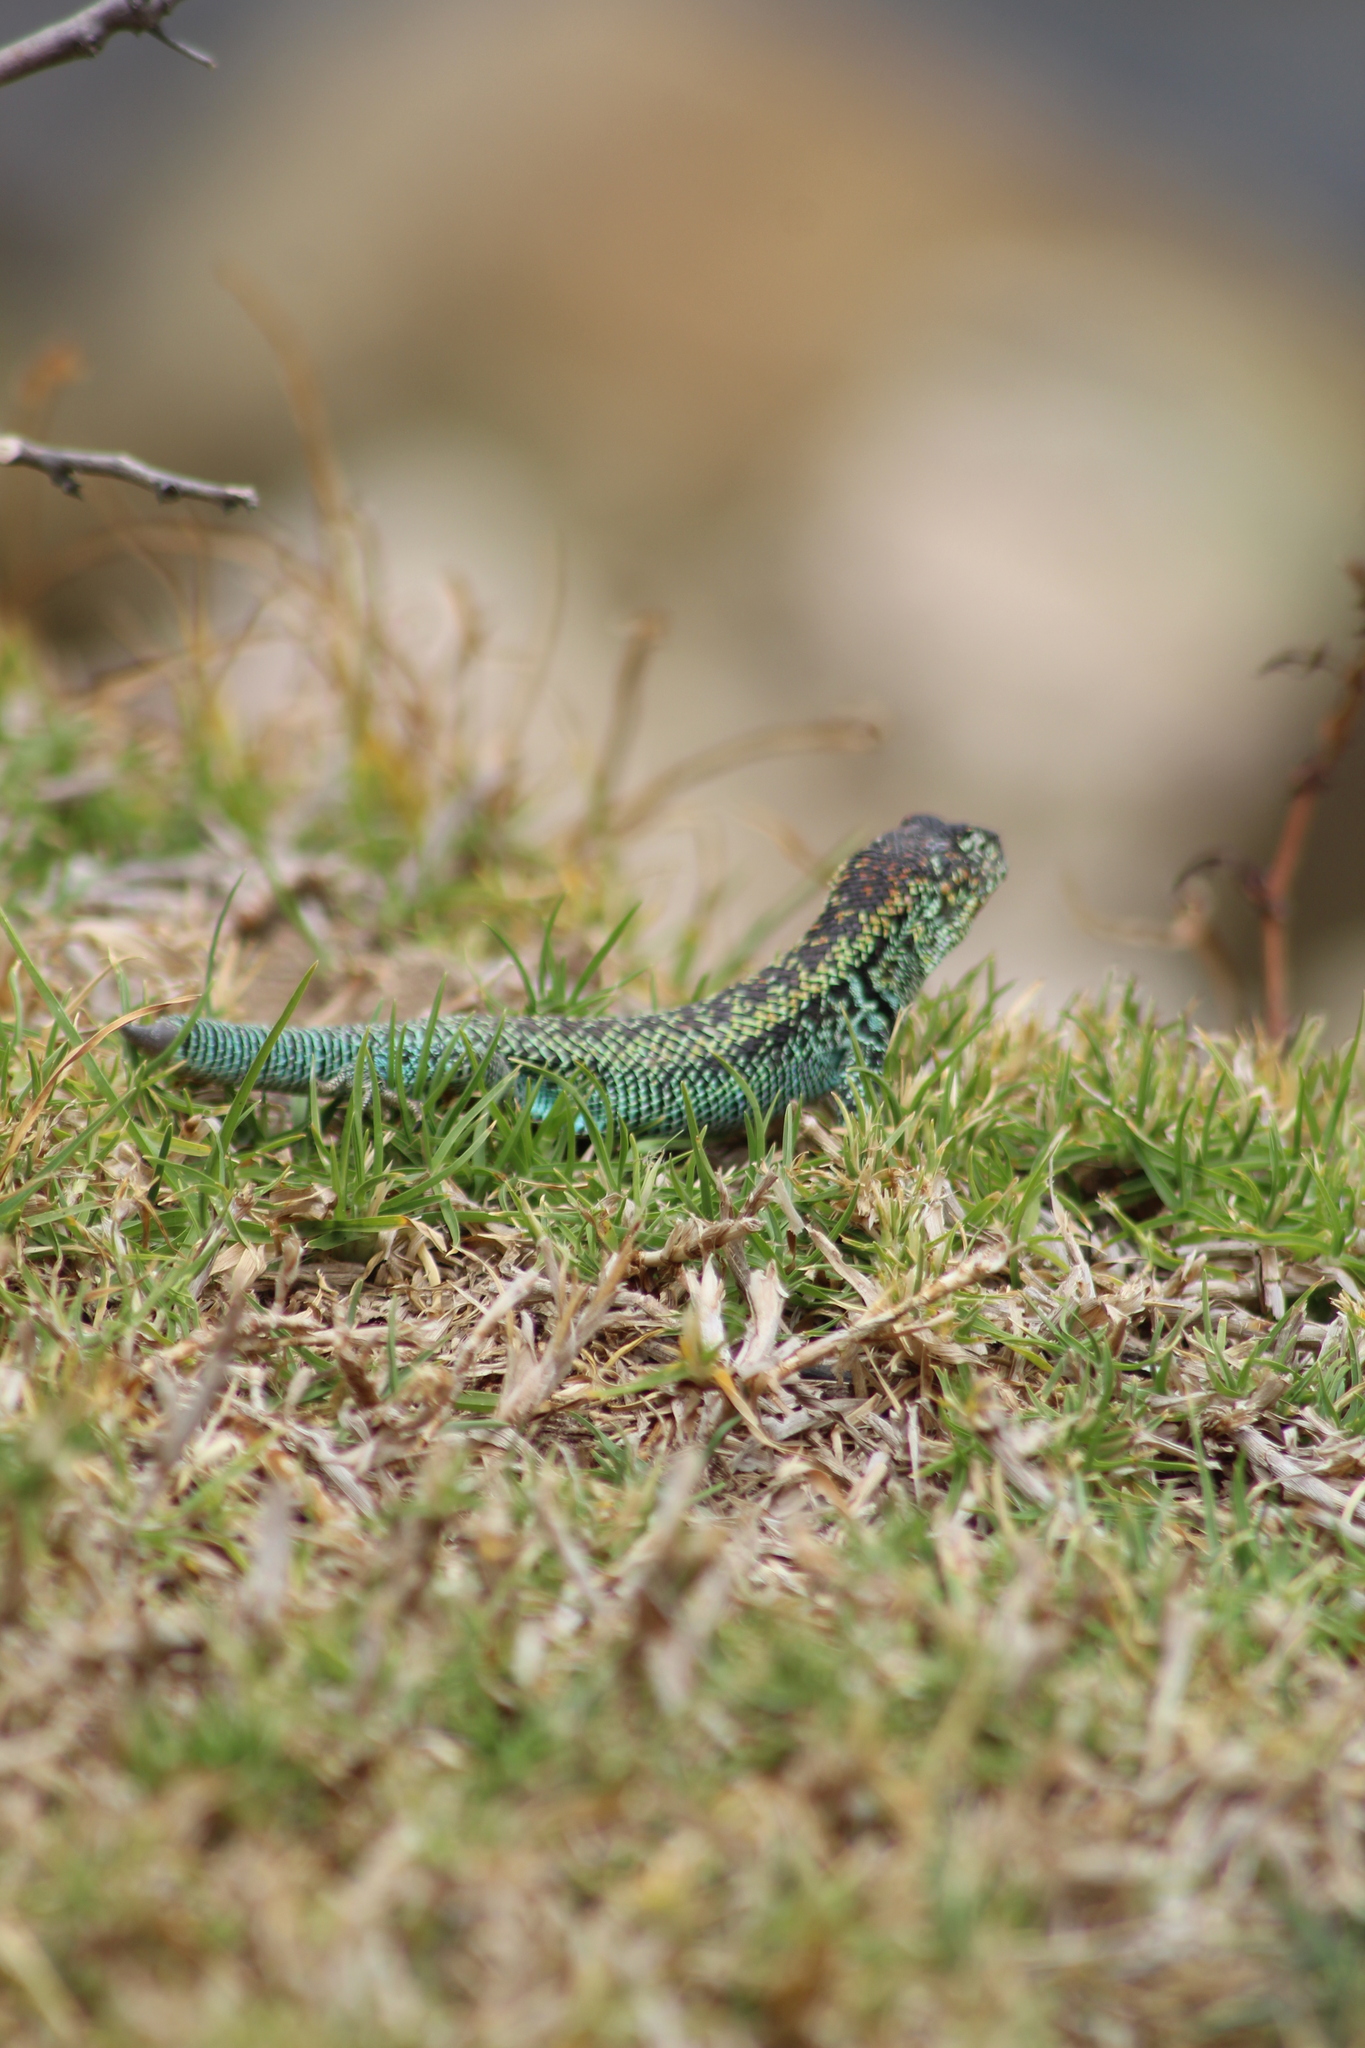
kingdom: Animalia
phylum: Chordata
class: Squamata
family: Liolaemidae
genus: Liolaemus
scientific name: Liolaemus zapallarensis
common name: Zapallaren tree iguana
